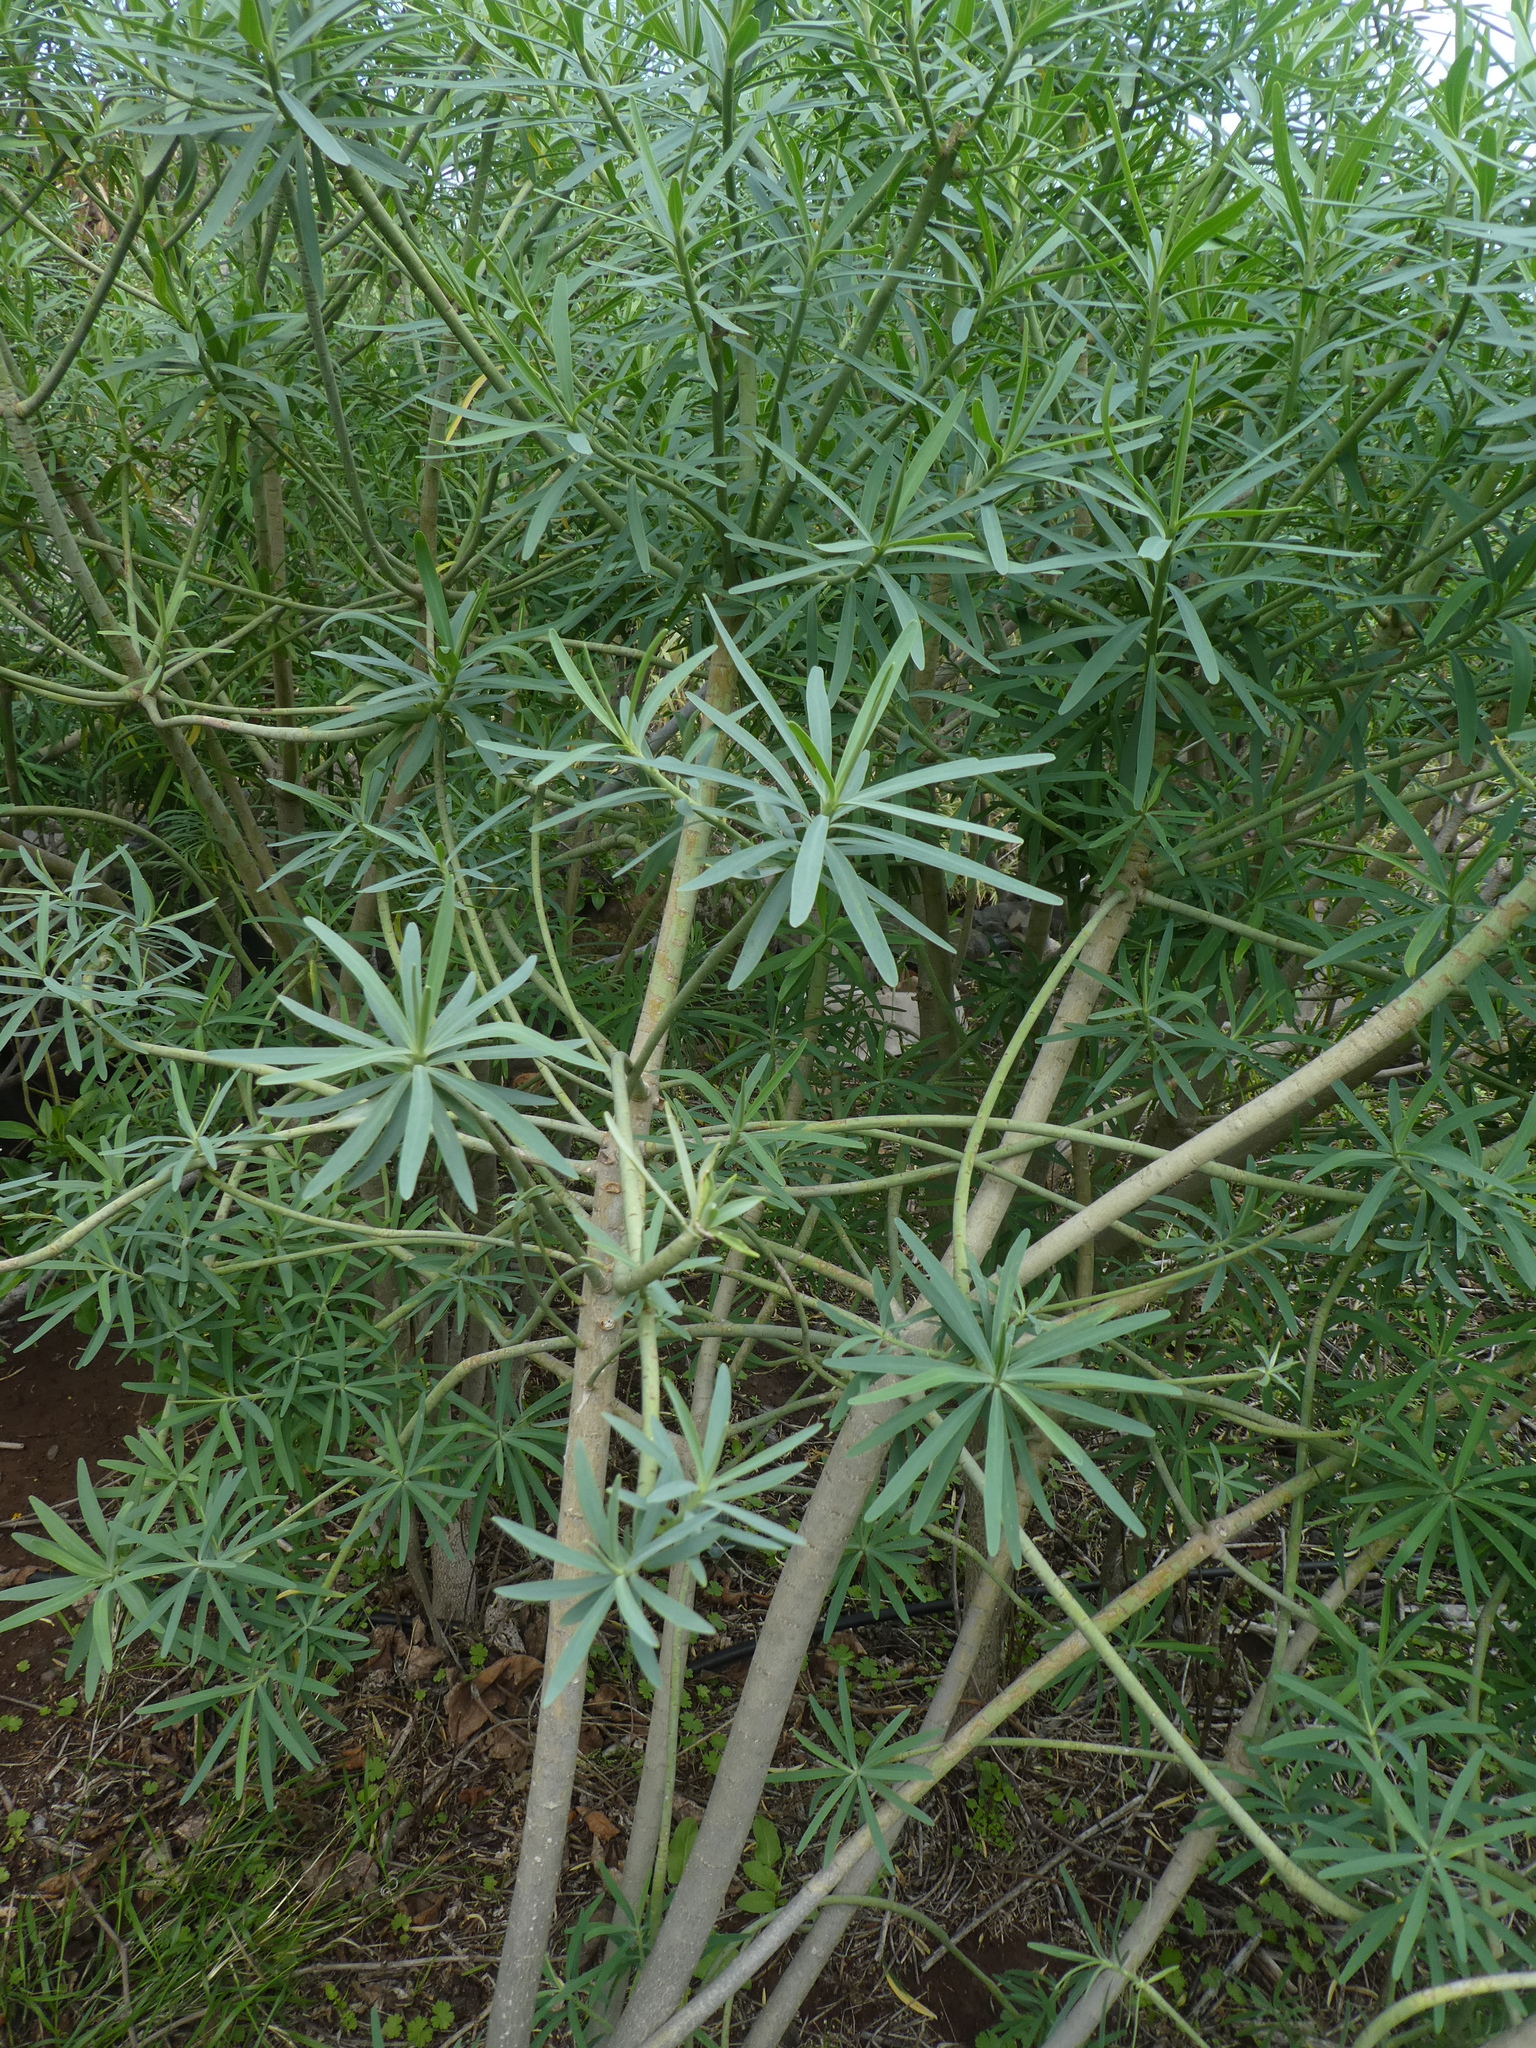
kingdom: Plantae
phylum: Tracheophyta
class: Magnoliopsida
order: Malpighiales
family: Euphorbiaceae
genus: Euphorbia
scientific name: Euphorbia lamarckii
